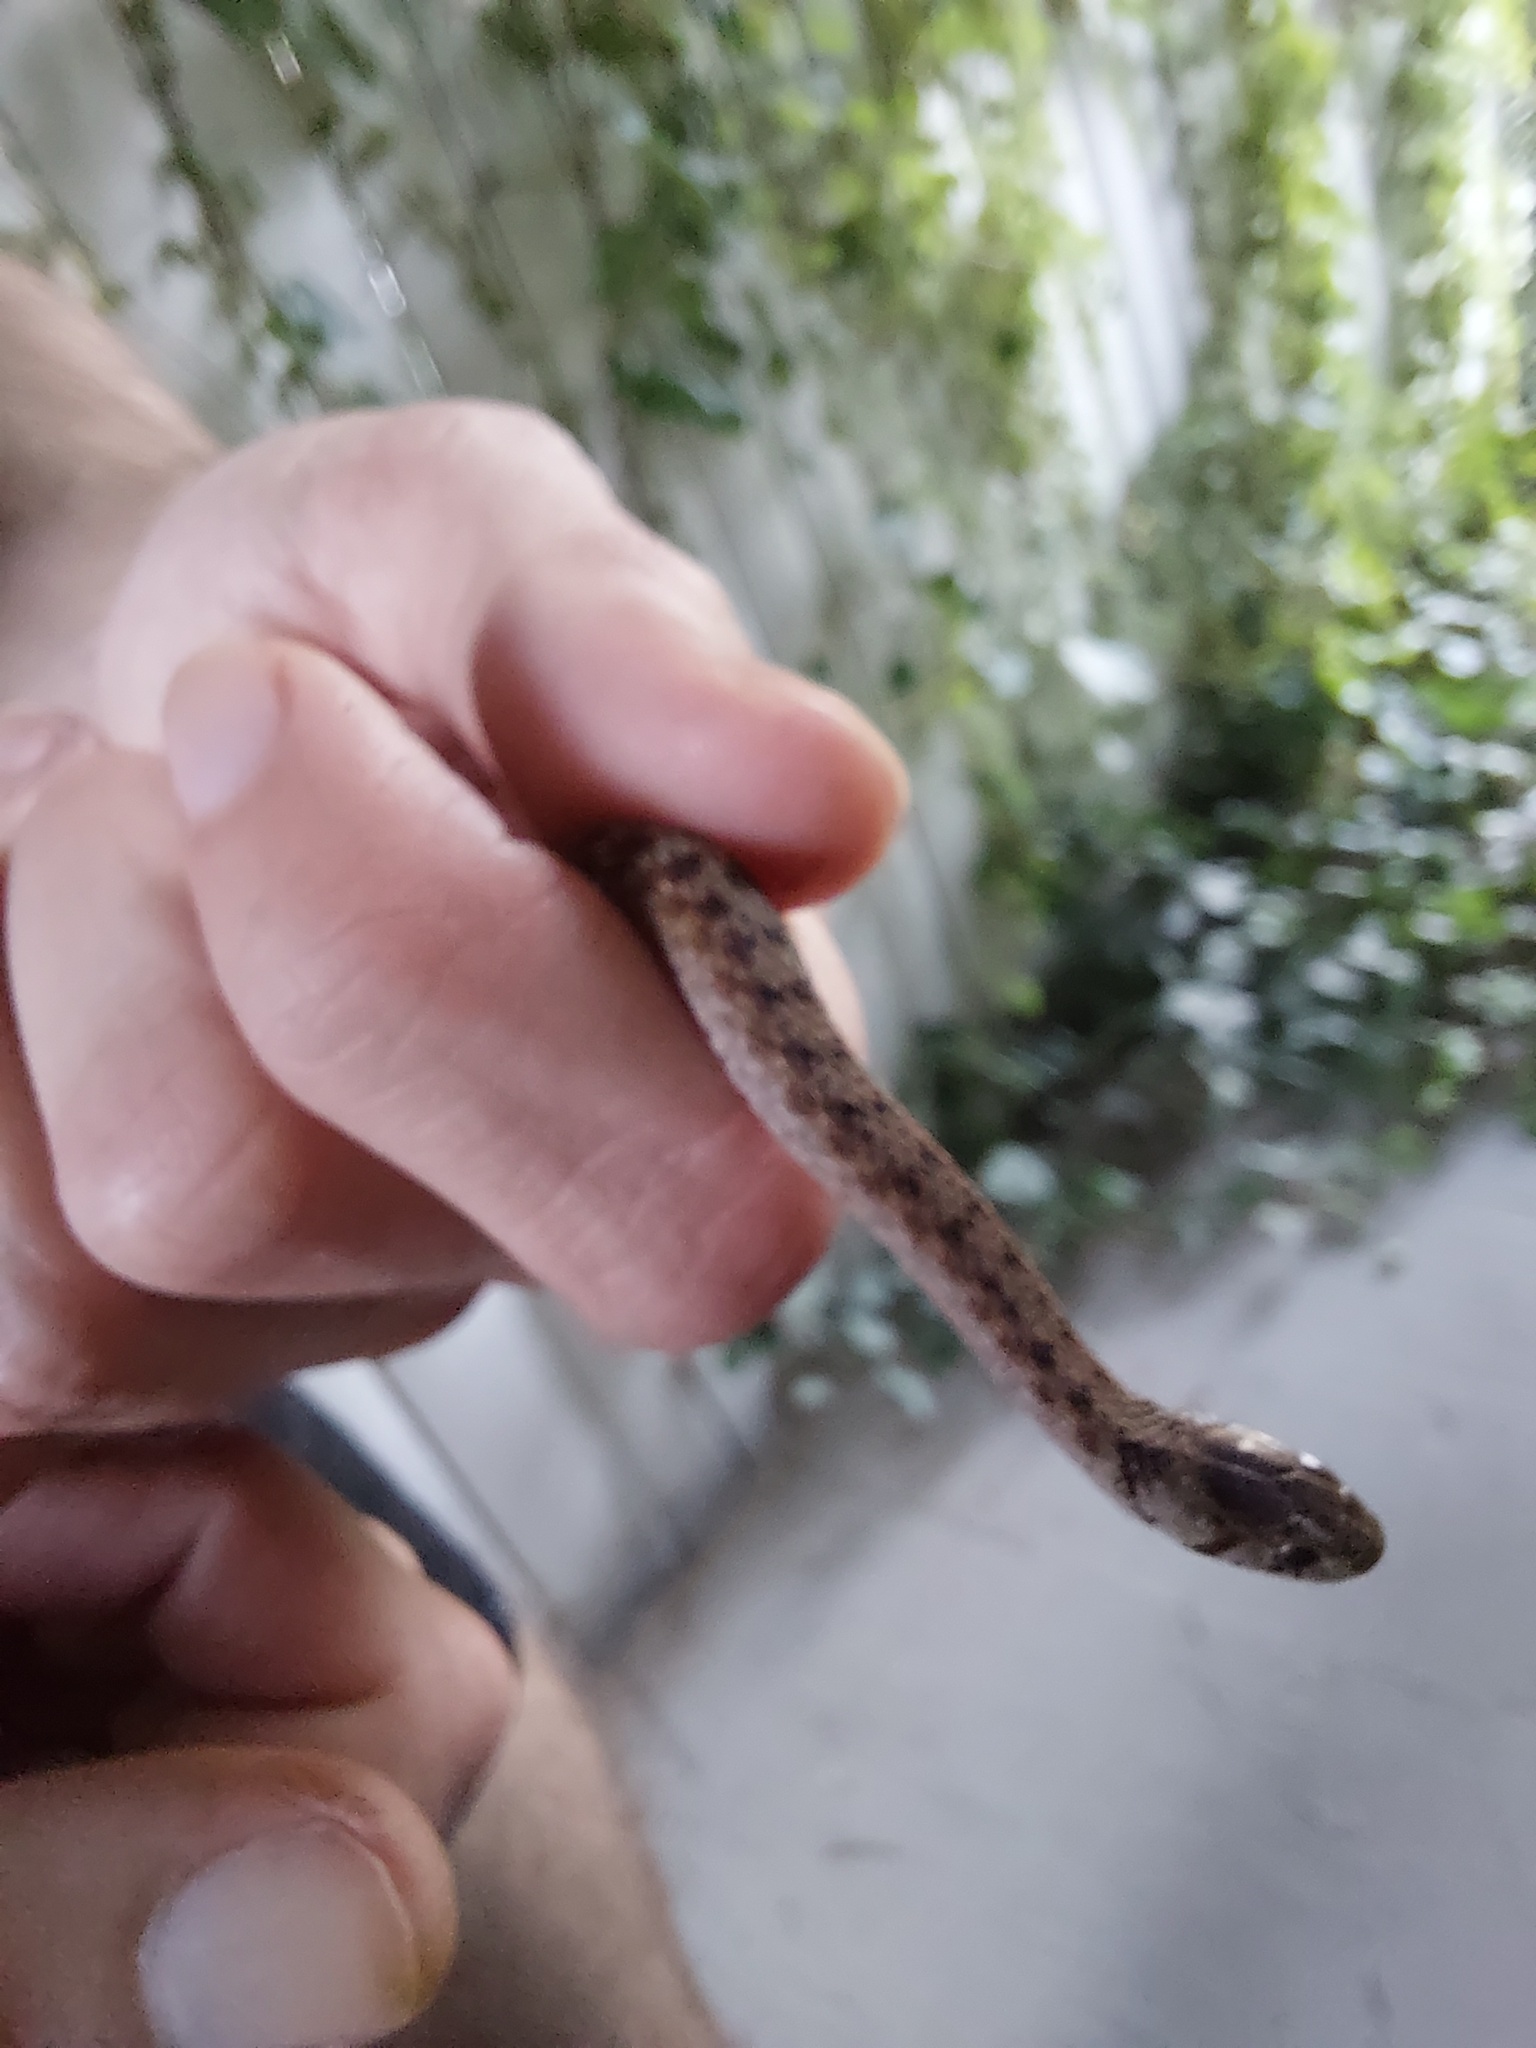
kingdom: Animalia
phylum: Chordata
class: Squamata
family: Colubridae
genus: Storeria
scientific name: Storeria dekayi
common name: (dekay’s) brown snake
